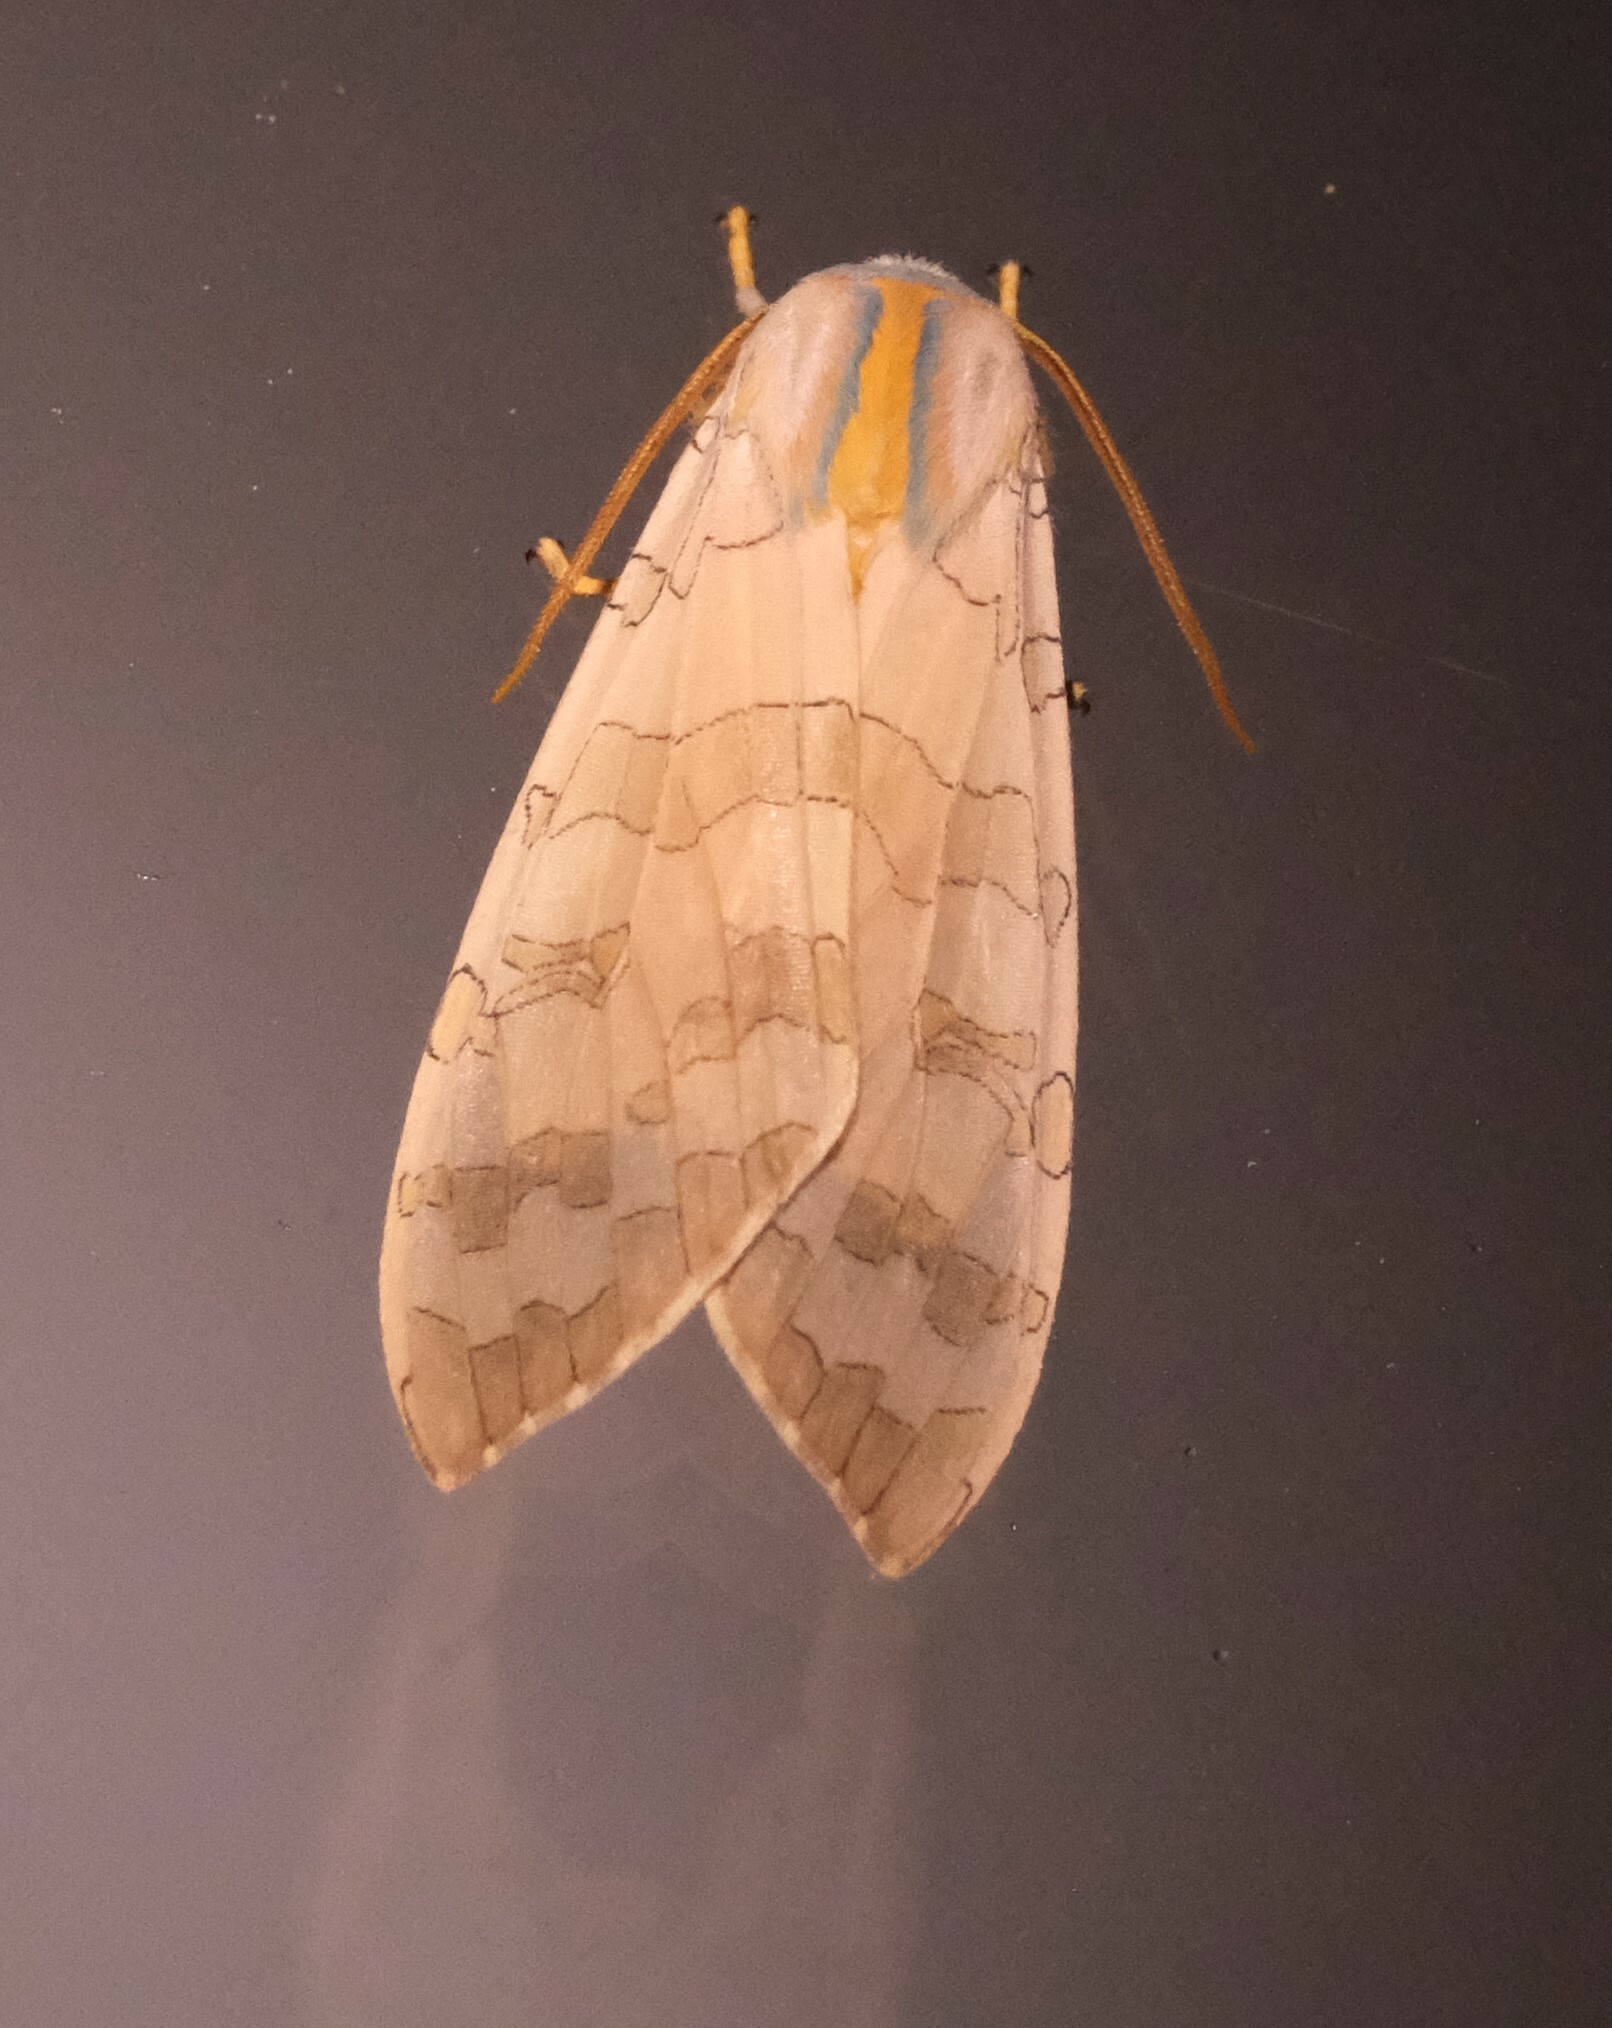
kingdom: Animalia
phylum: Arthropoda
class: Insecta
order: Lepidoptera
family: Erebidae
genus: Halysidota
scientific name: Halysidota tessellaris
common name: Banded tussock moth
